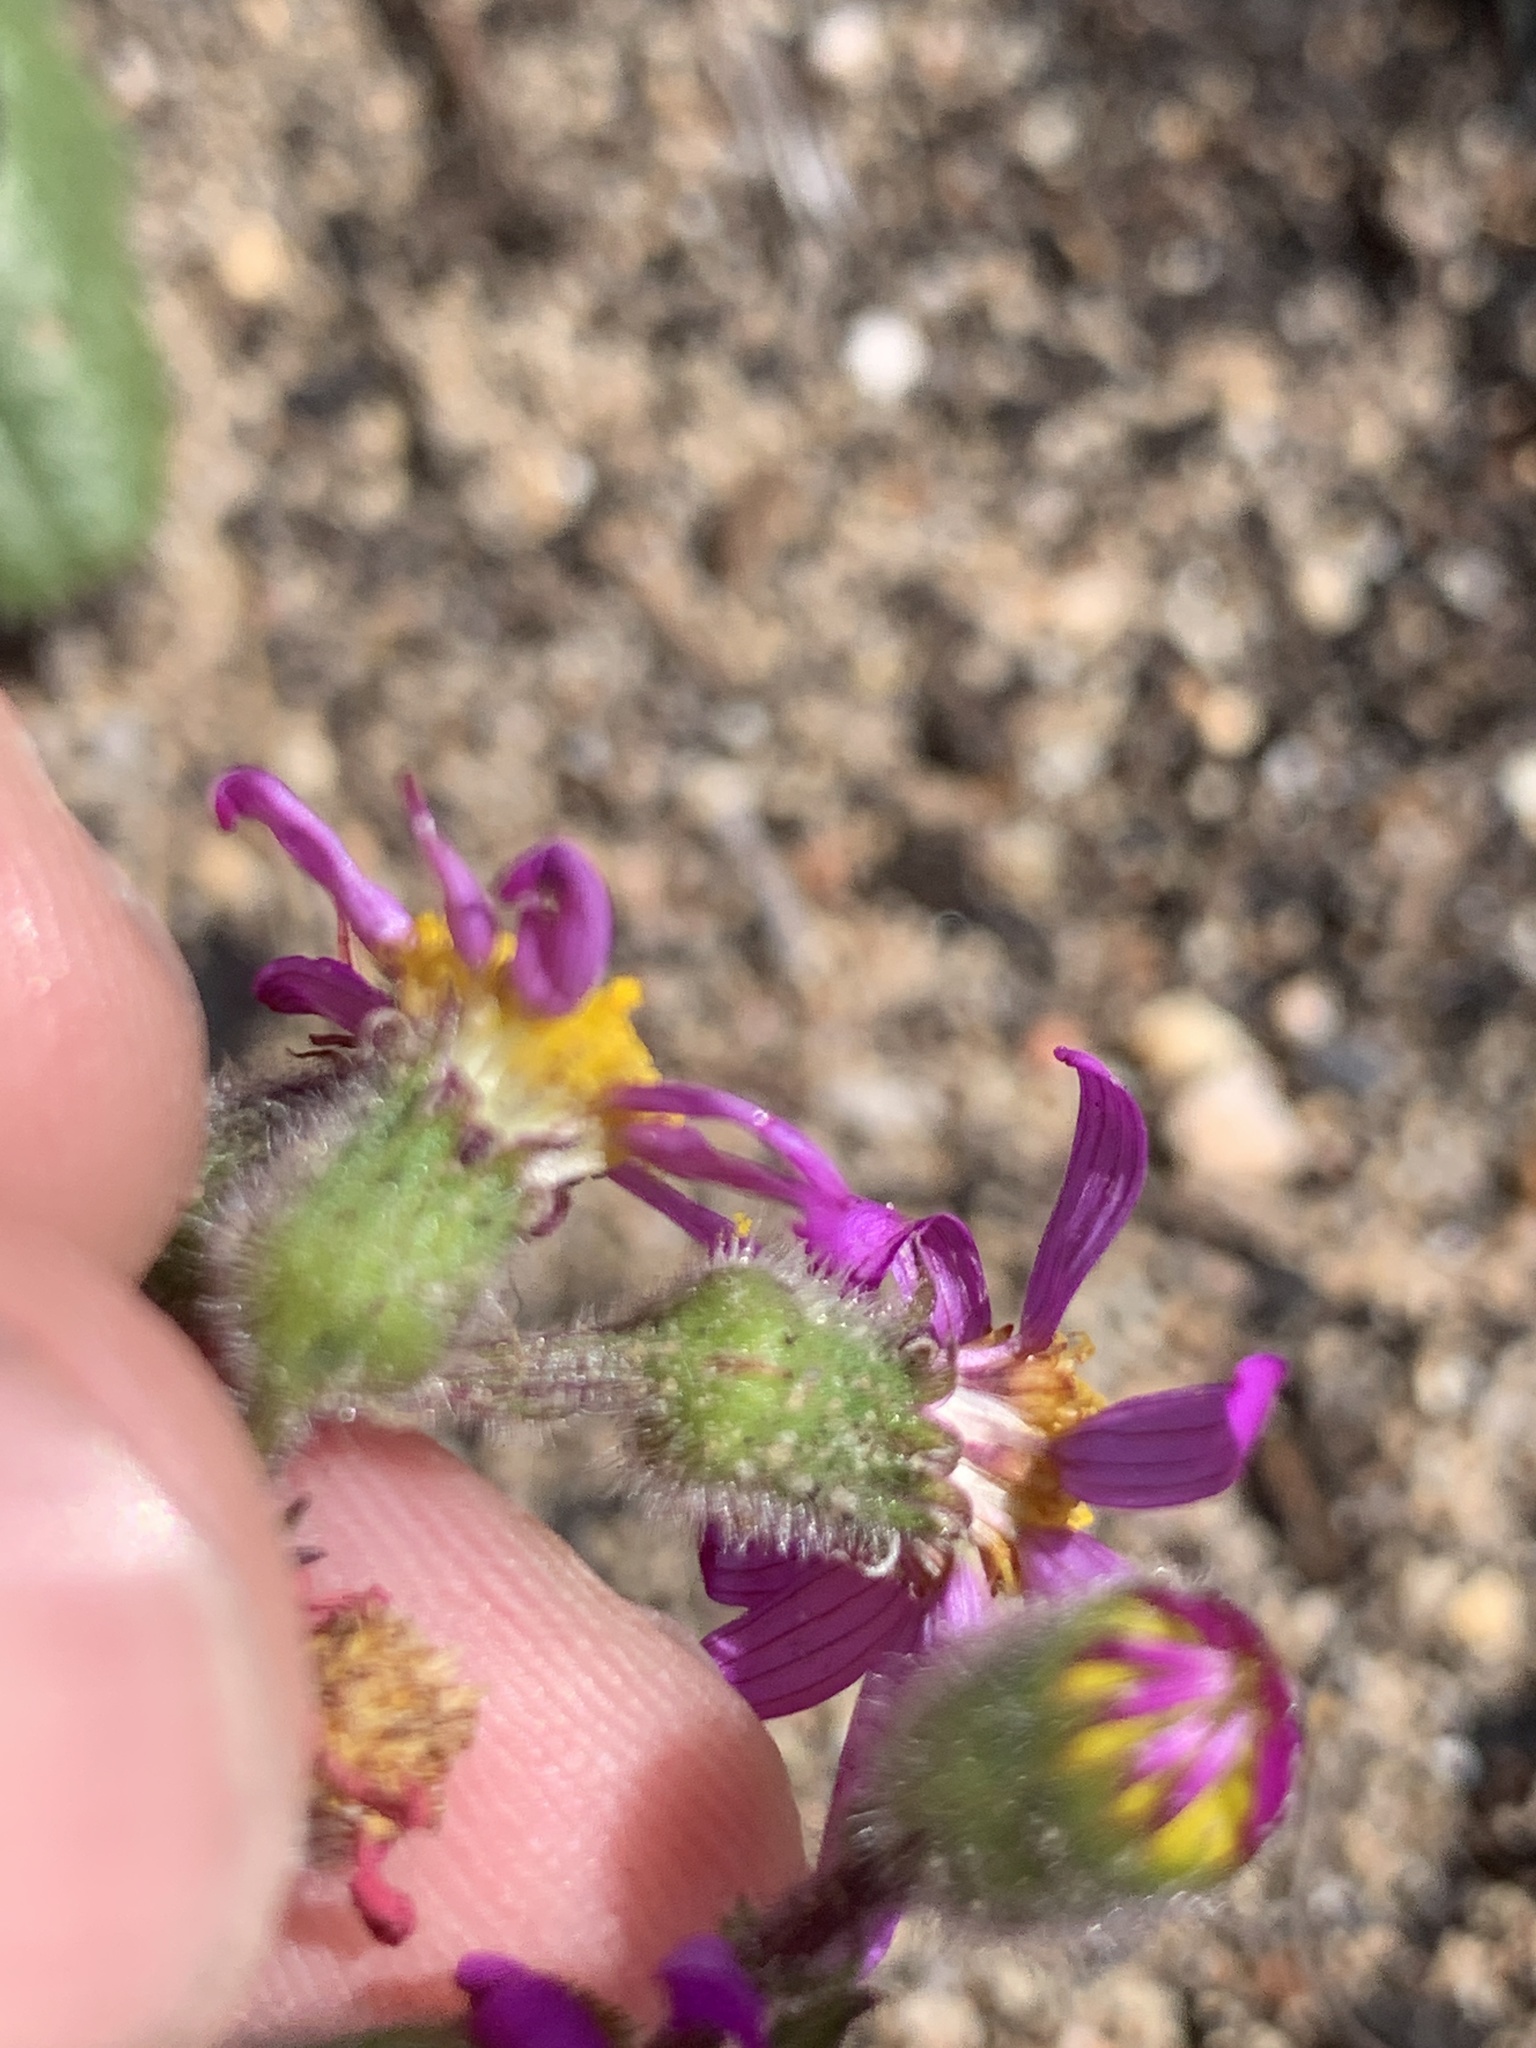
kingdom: Plantae
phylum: Tracheophyta
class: Magnoliopsida
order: Asterales
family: Asteraceae
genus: Senecio
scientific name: Senecio arenarius
